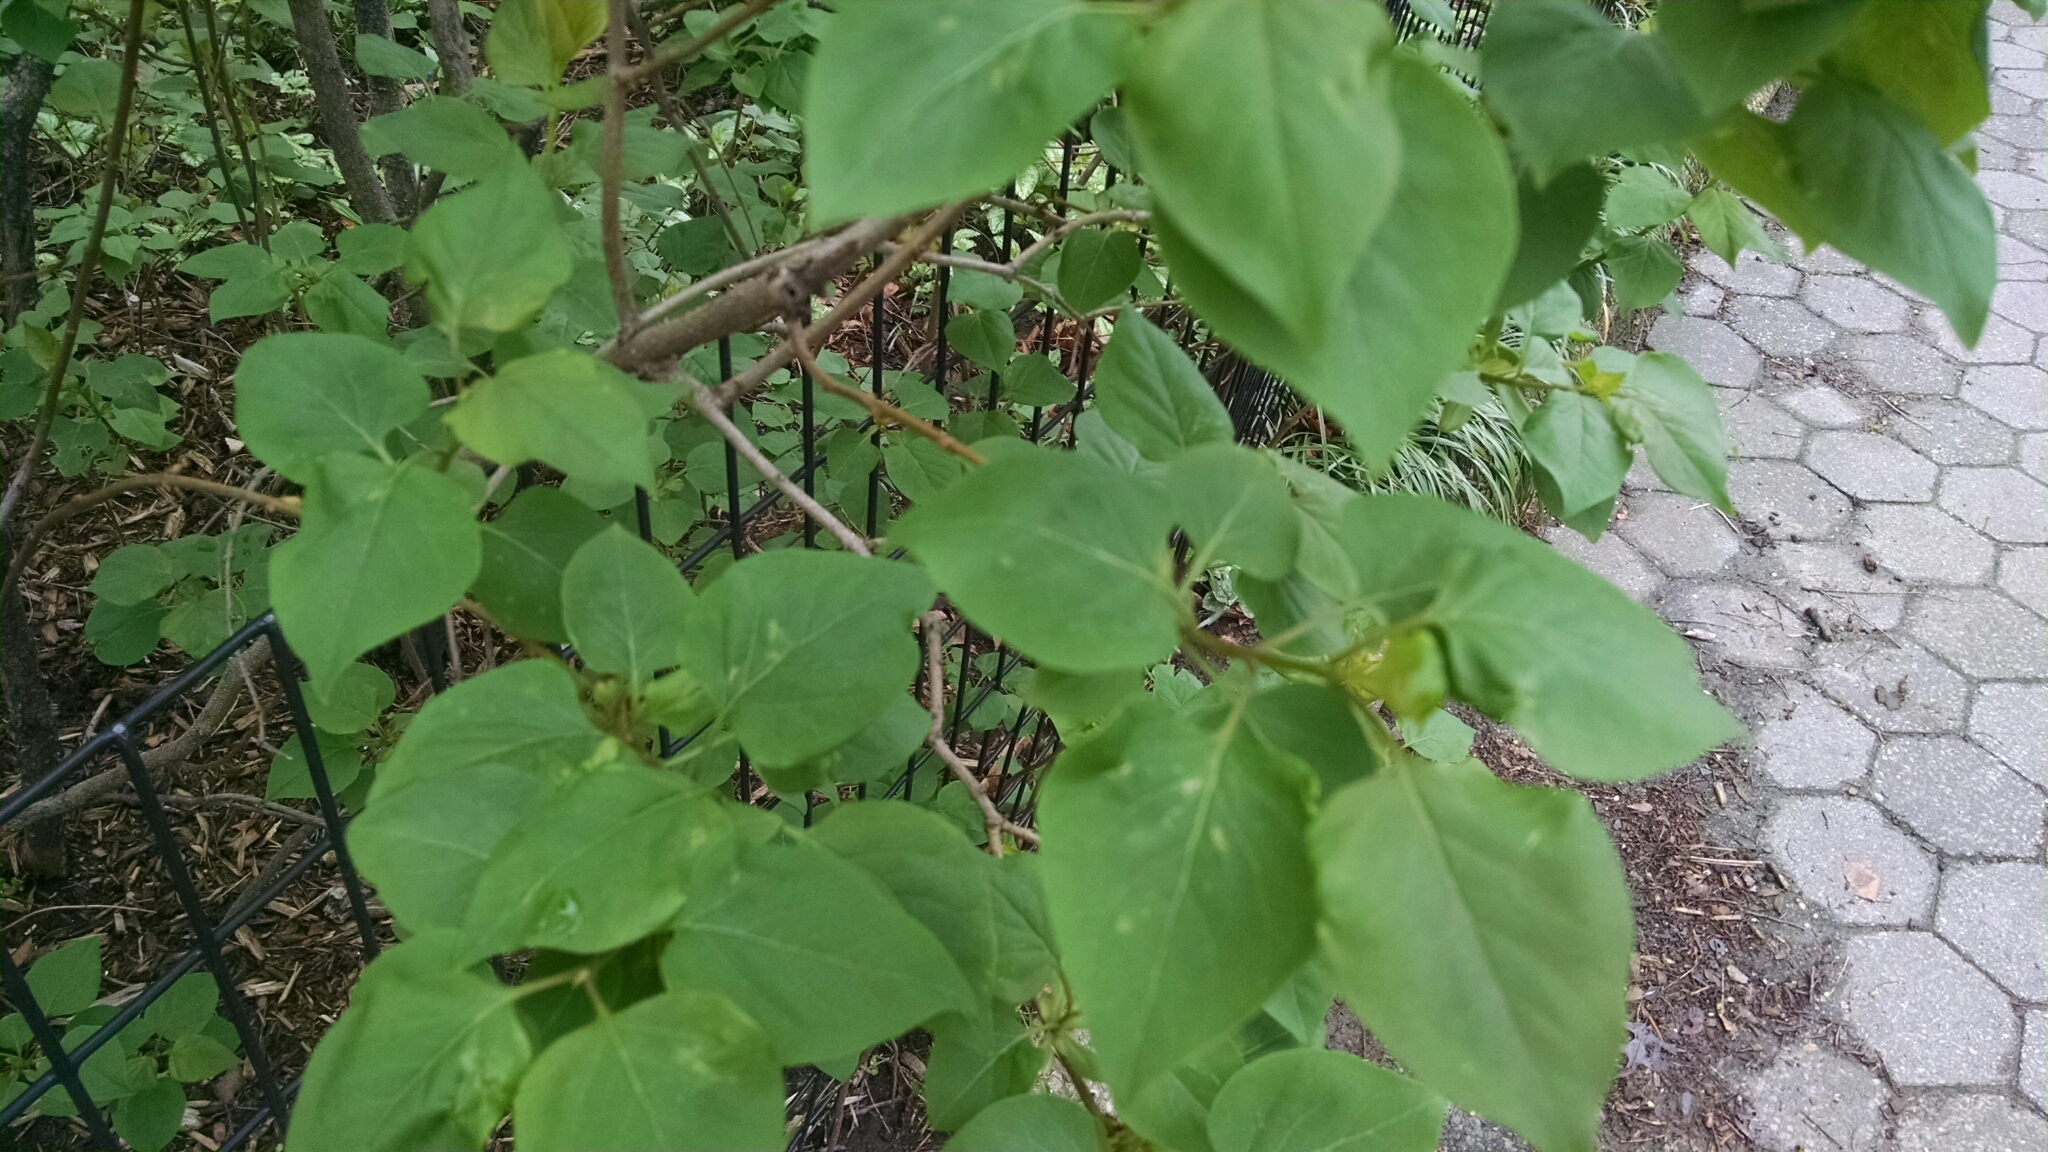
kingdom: Plantae
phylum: Tracheophyta
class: Magnoliopsida
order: Lamiales
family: Oleaceae
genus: Syringa
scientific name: Syringa vulgaris
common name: Common lilac
